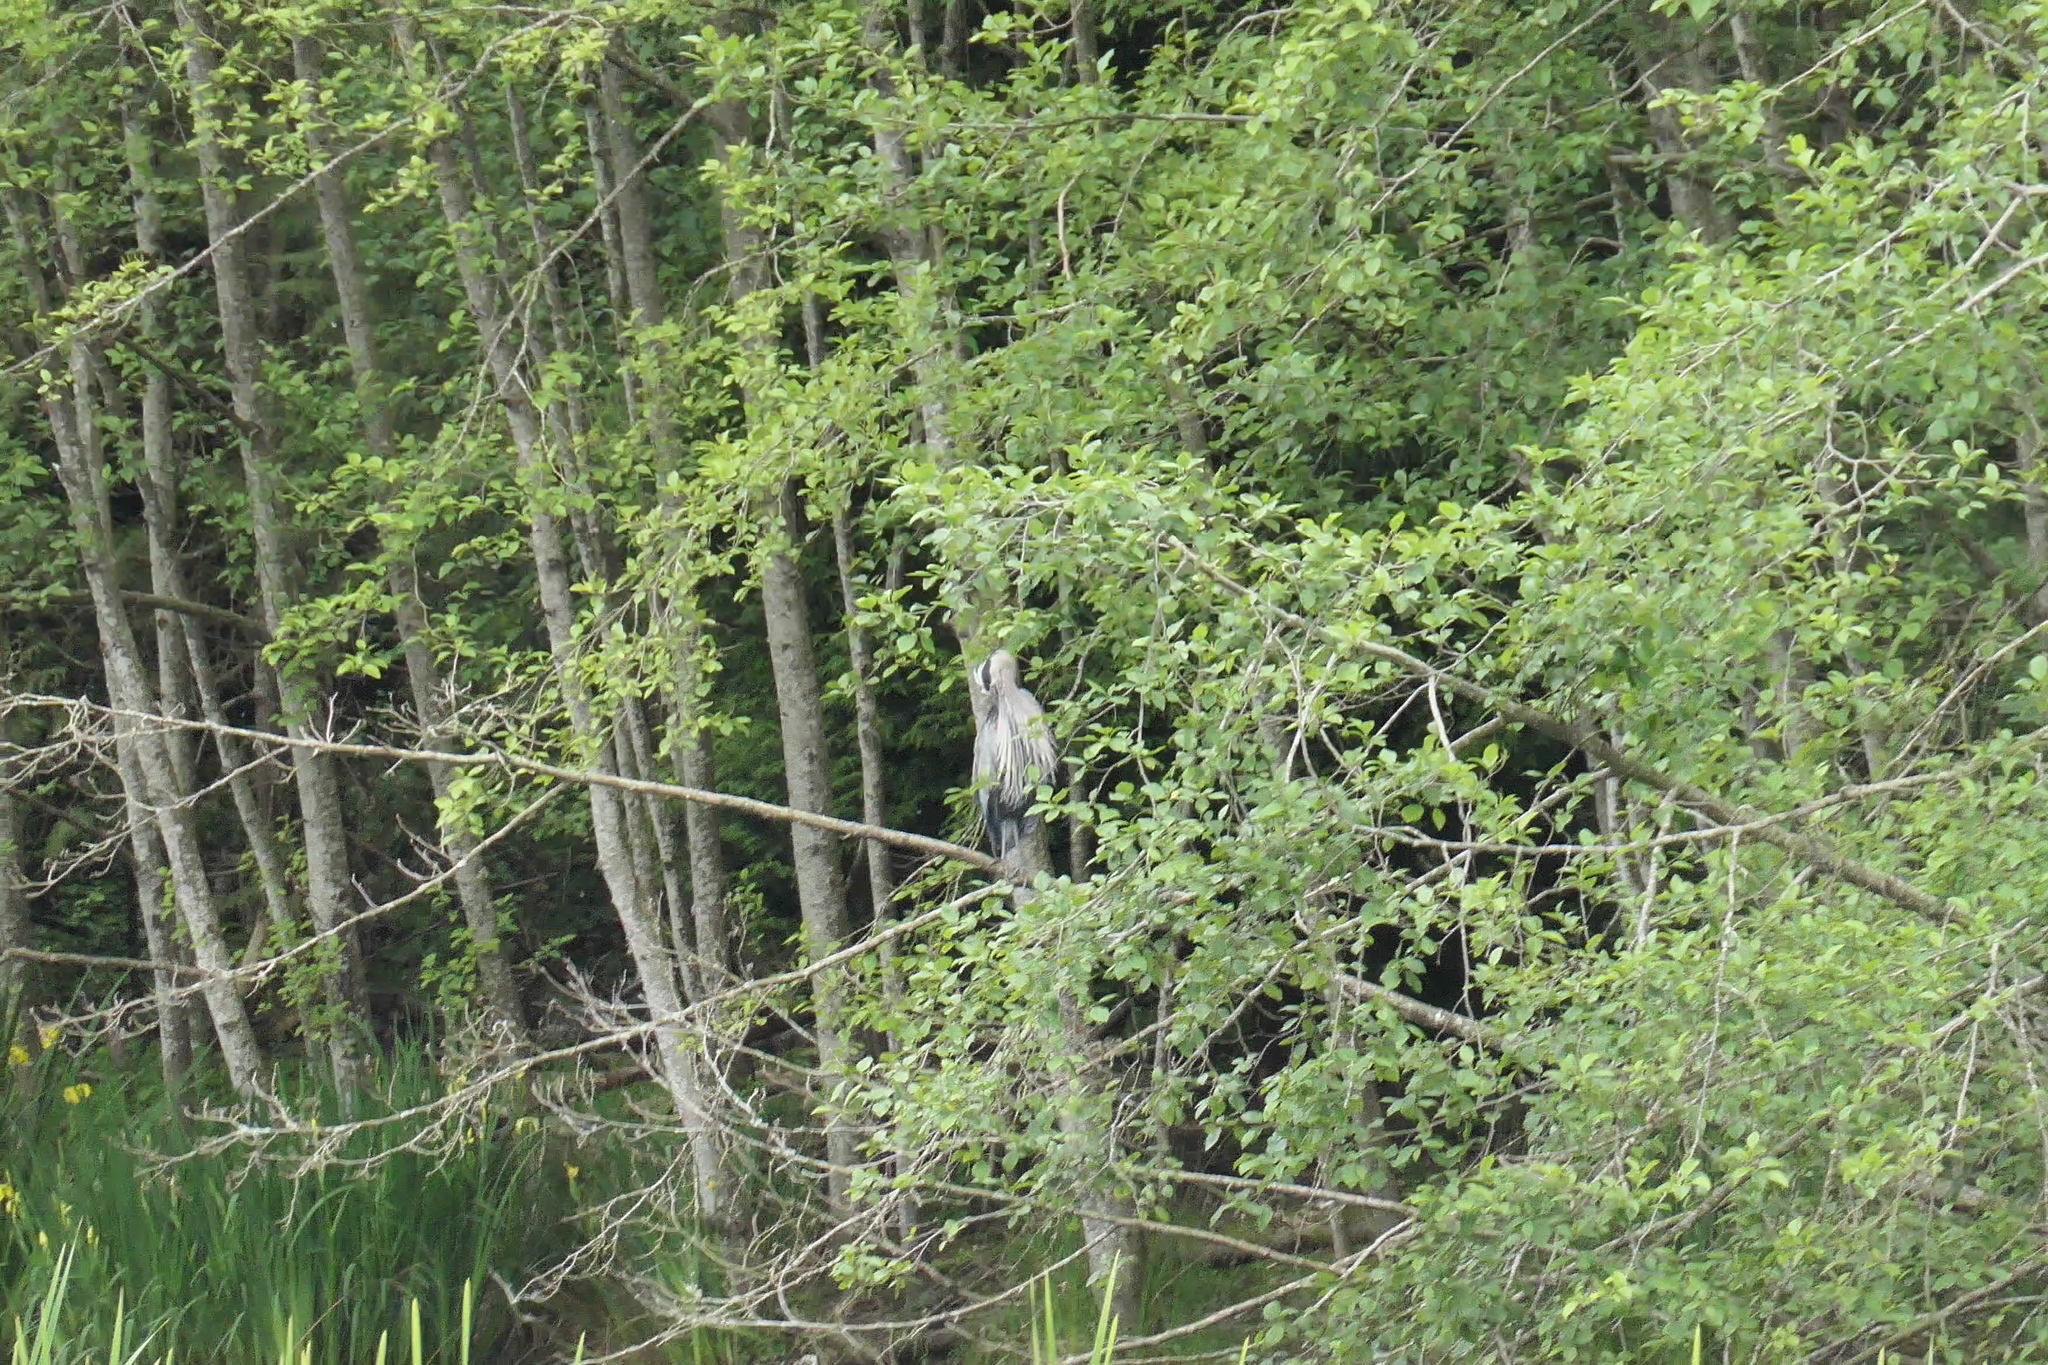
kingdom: Animalia
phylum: Chordata
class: Aves
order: Pelecaniformes
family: Ardeidae
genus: Ardea
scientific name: Ardea herodias
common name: Great blue heron
